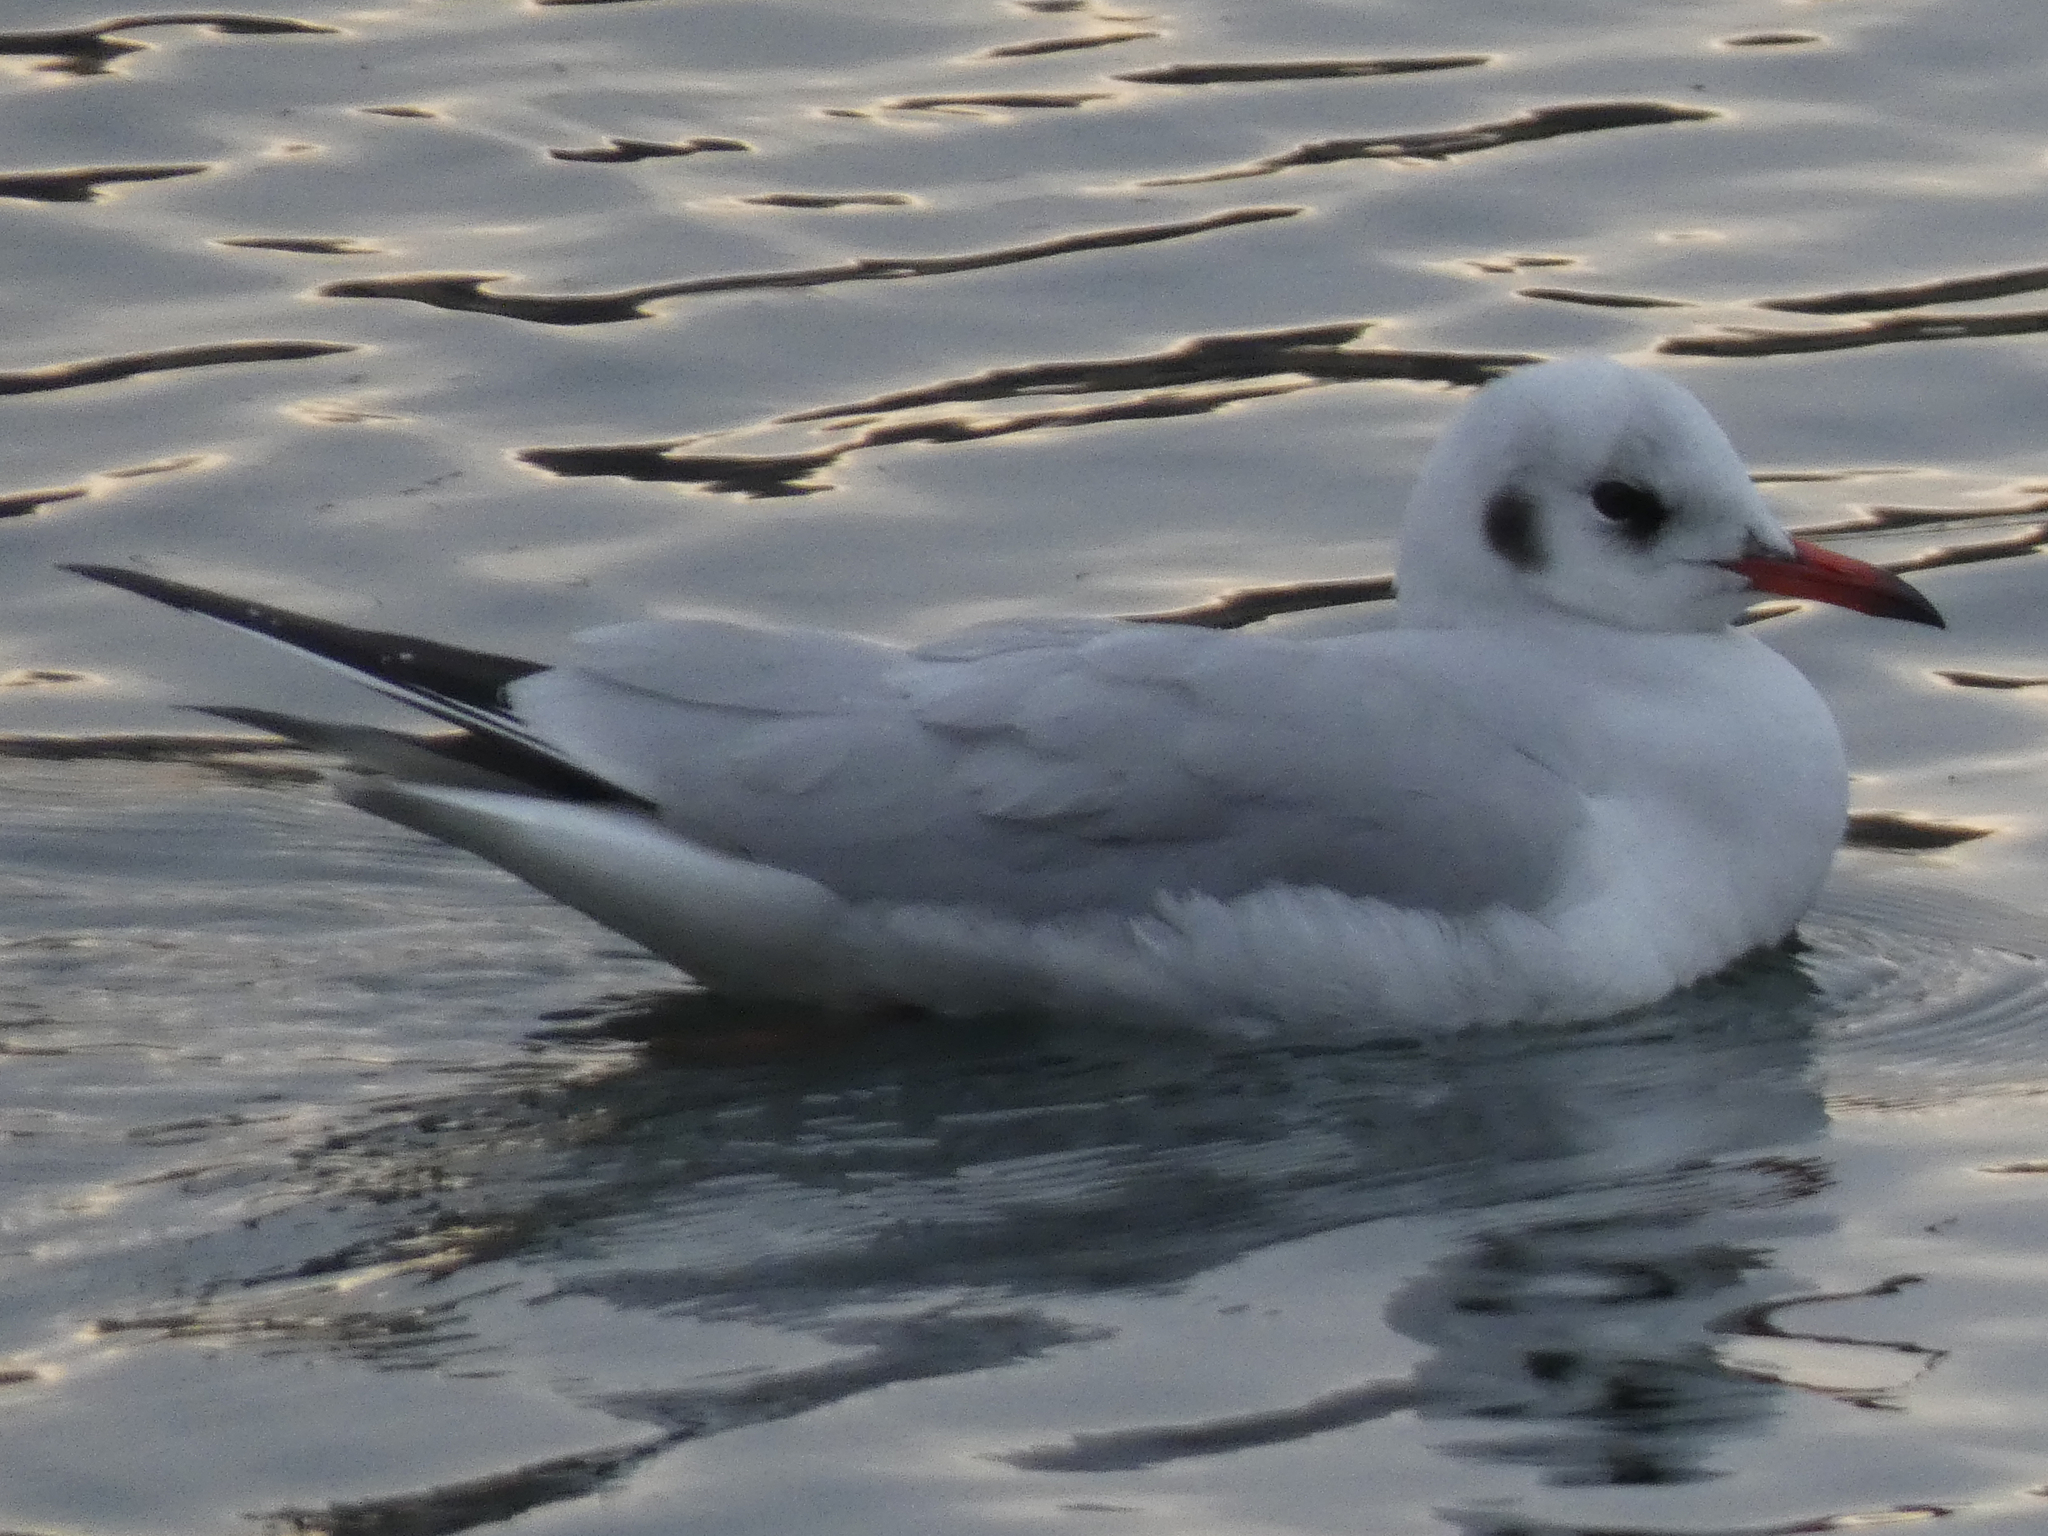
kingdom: Animalia
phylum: Chordata
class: Aves
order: Charadriiformes
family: Laridae
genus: Chroicocephalus
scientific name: Chroicocephalus ridibundus
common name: Black-headed gull
